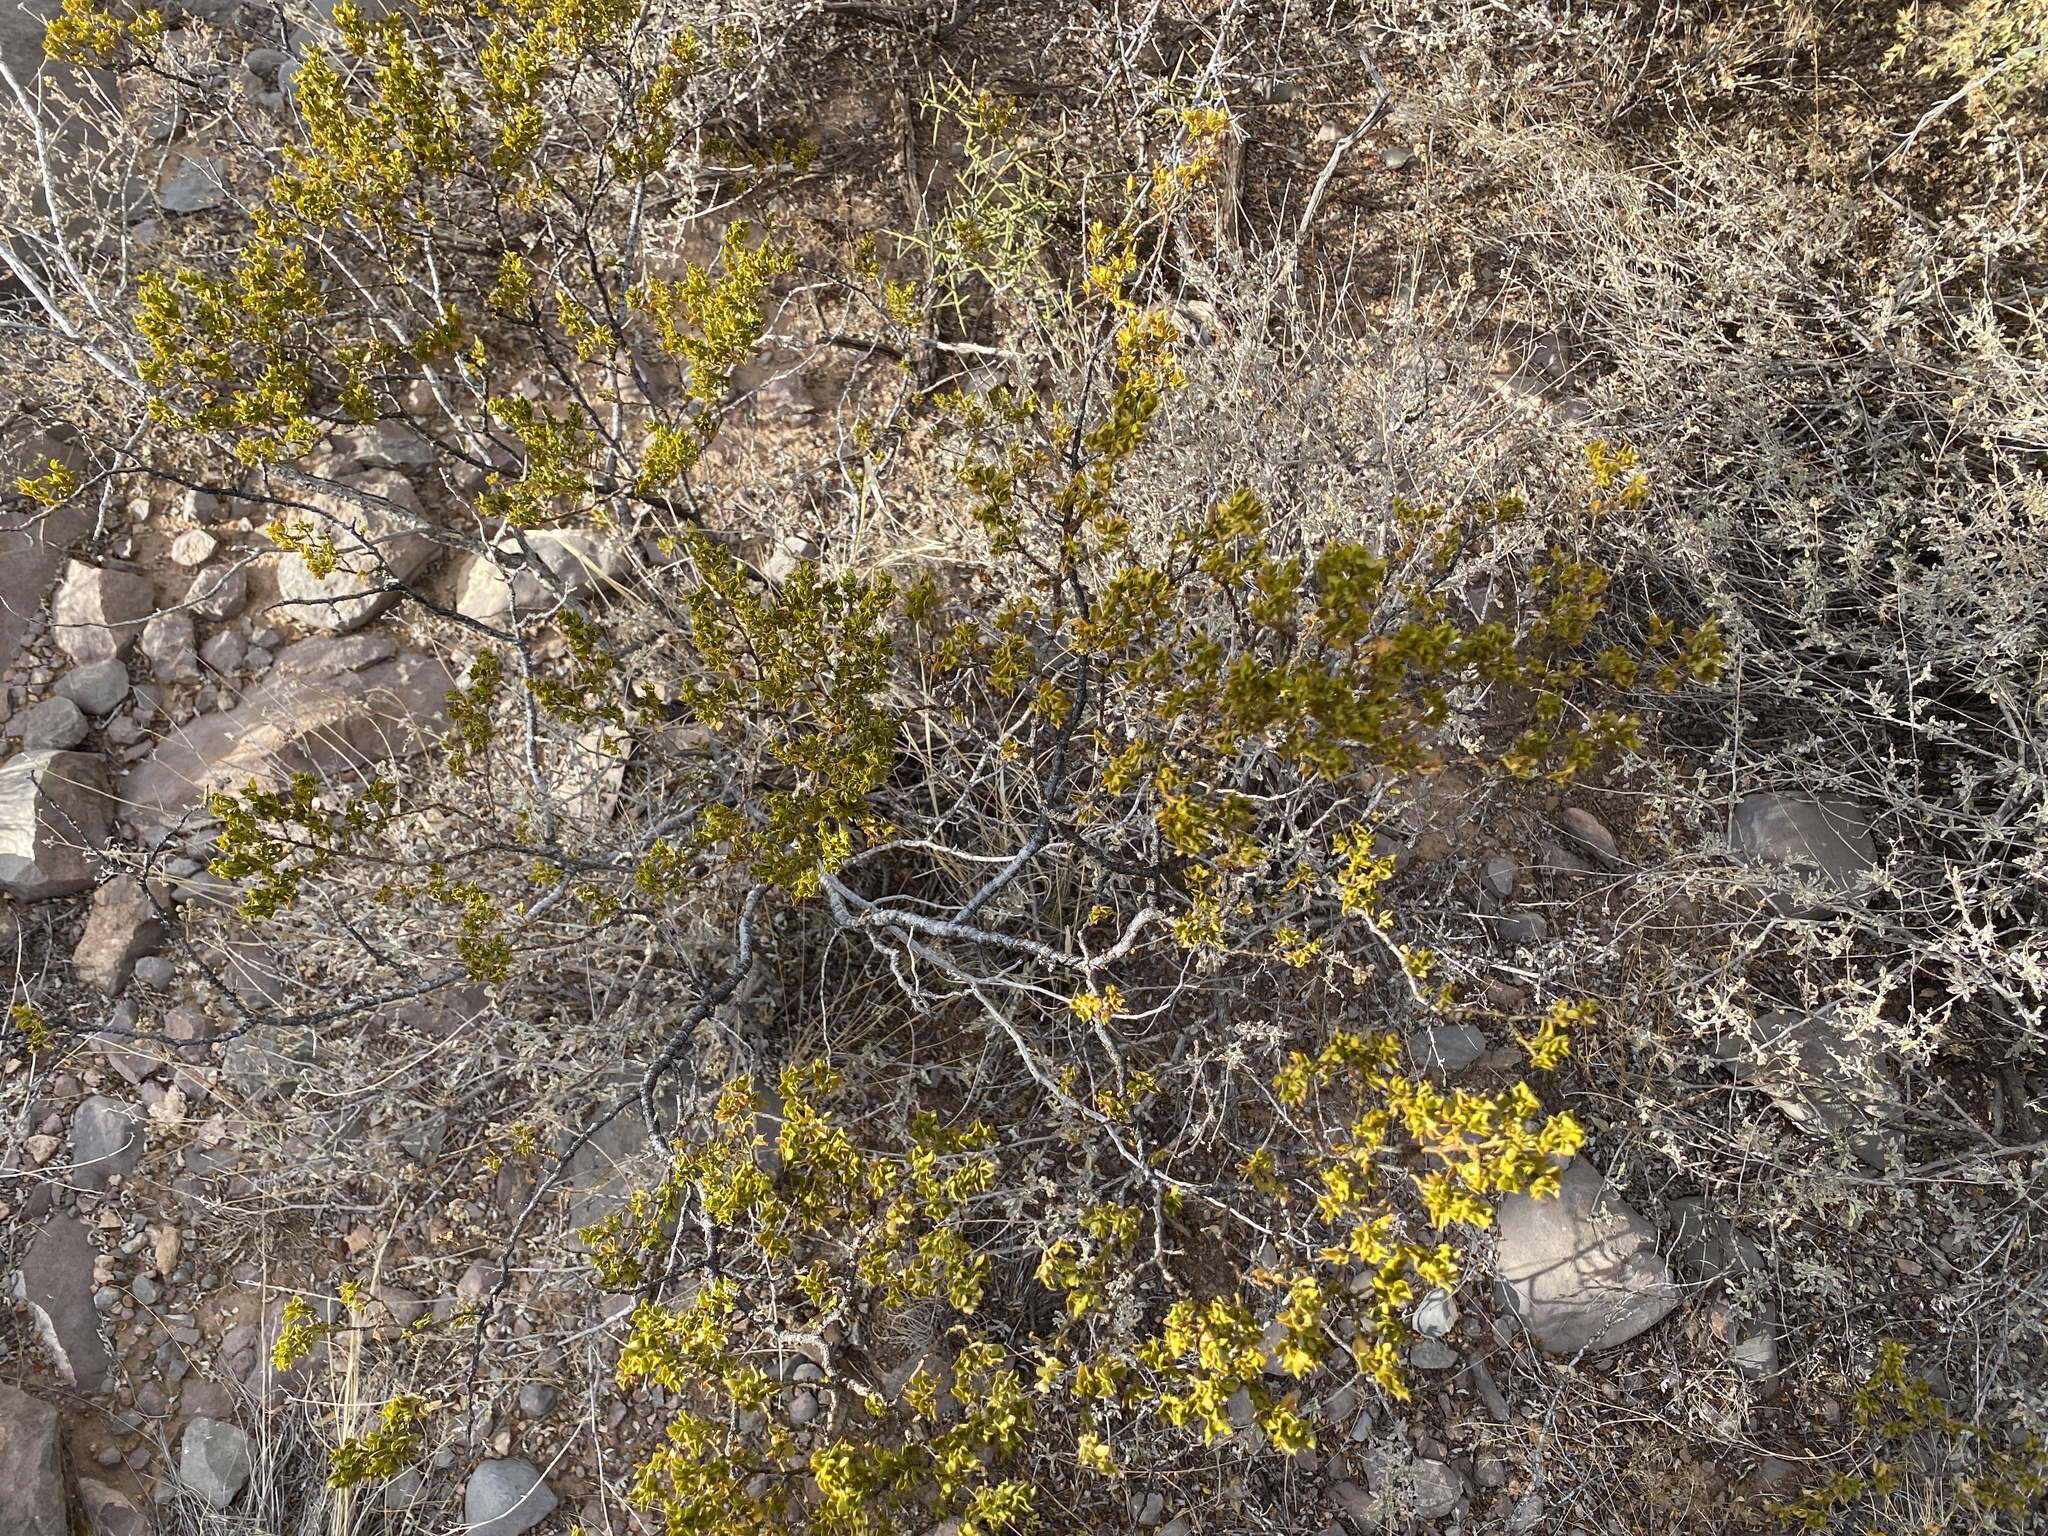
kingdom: Plantae
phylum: Tracheophyta
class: Magnoliopsida
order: Zygophyllales
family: Zygophyllaceae
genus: Larrea
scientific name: Larrea tridentata
